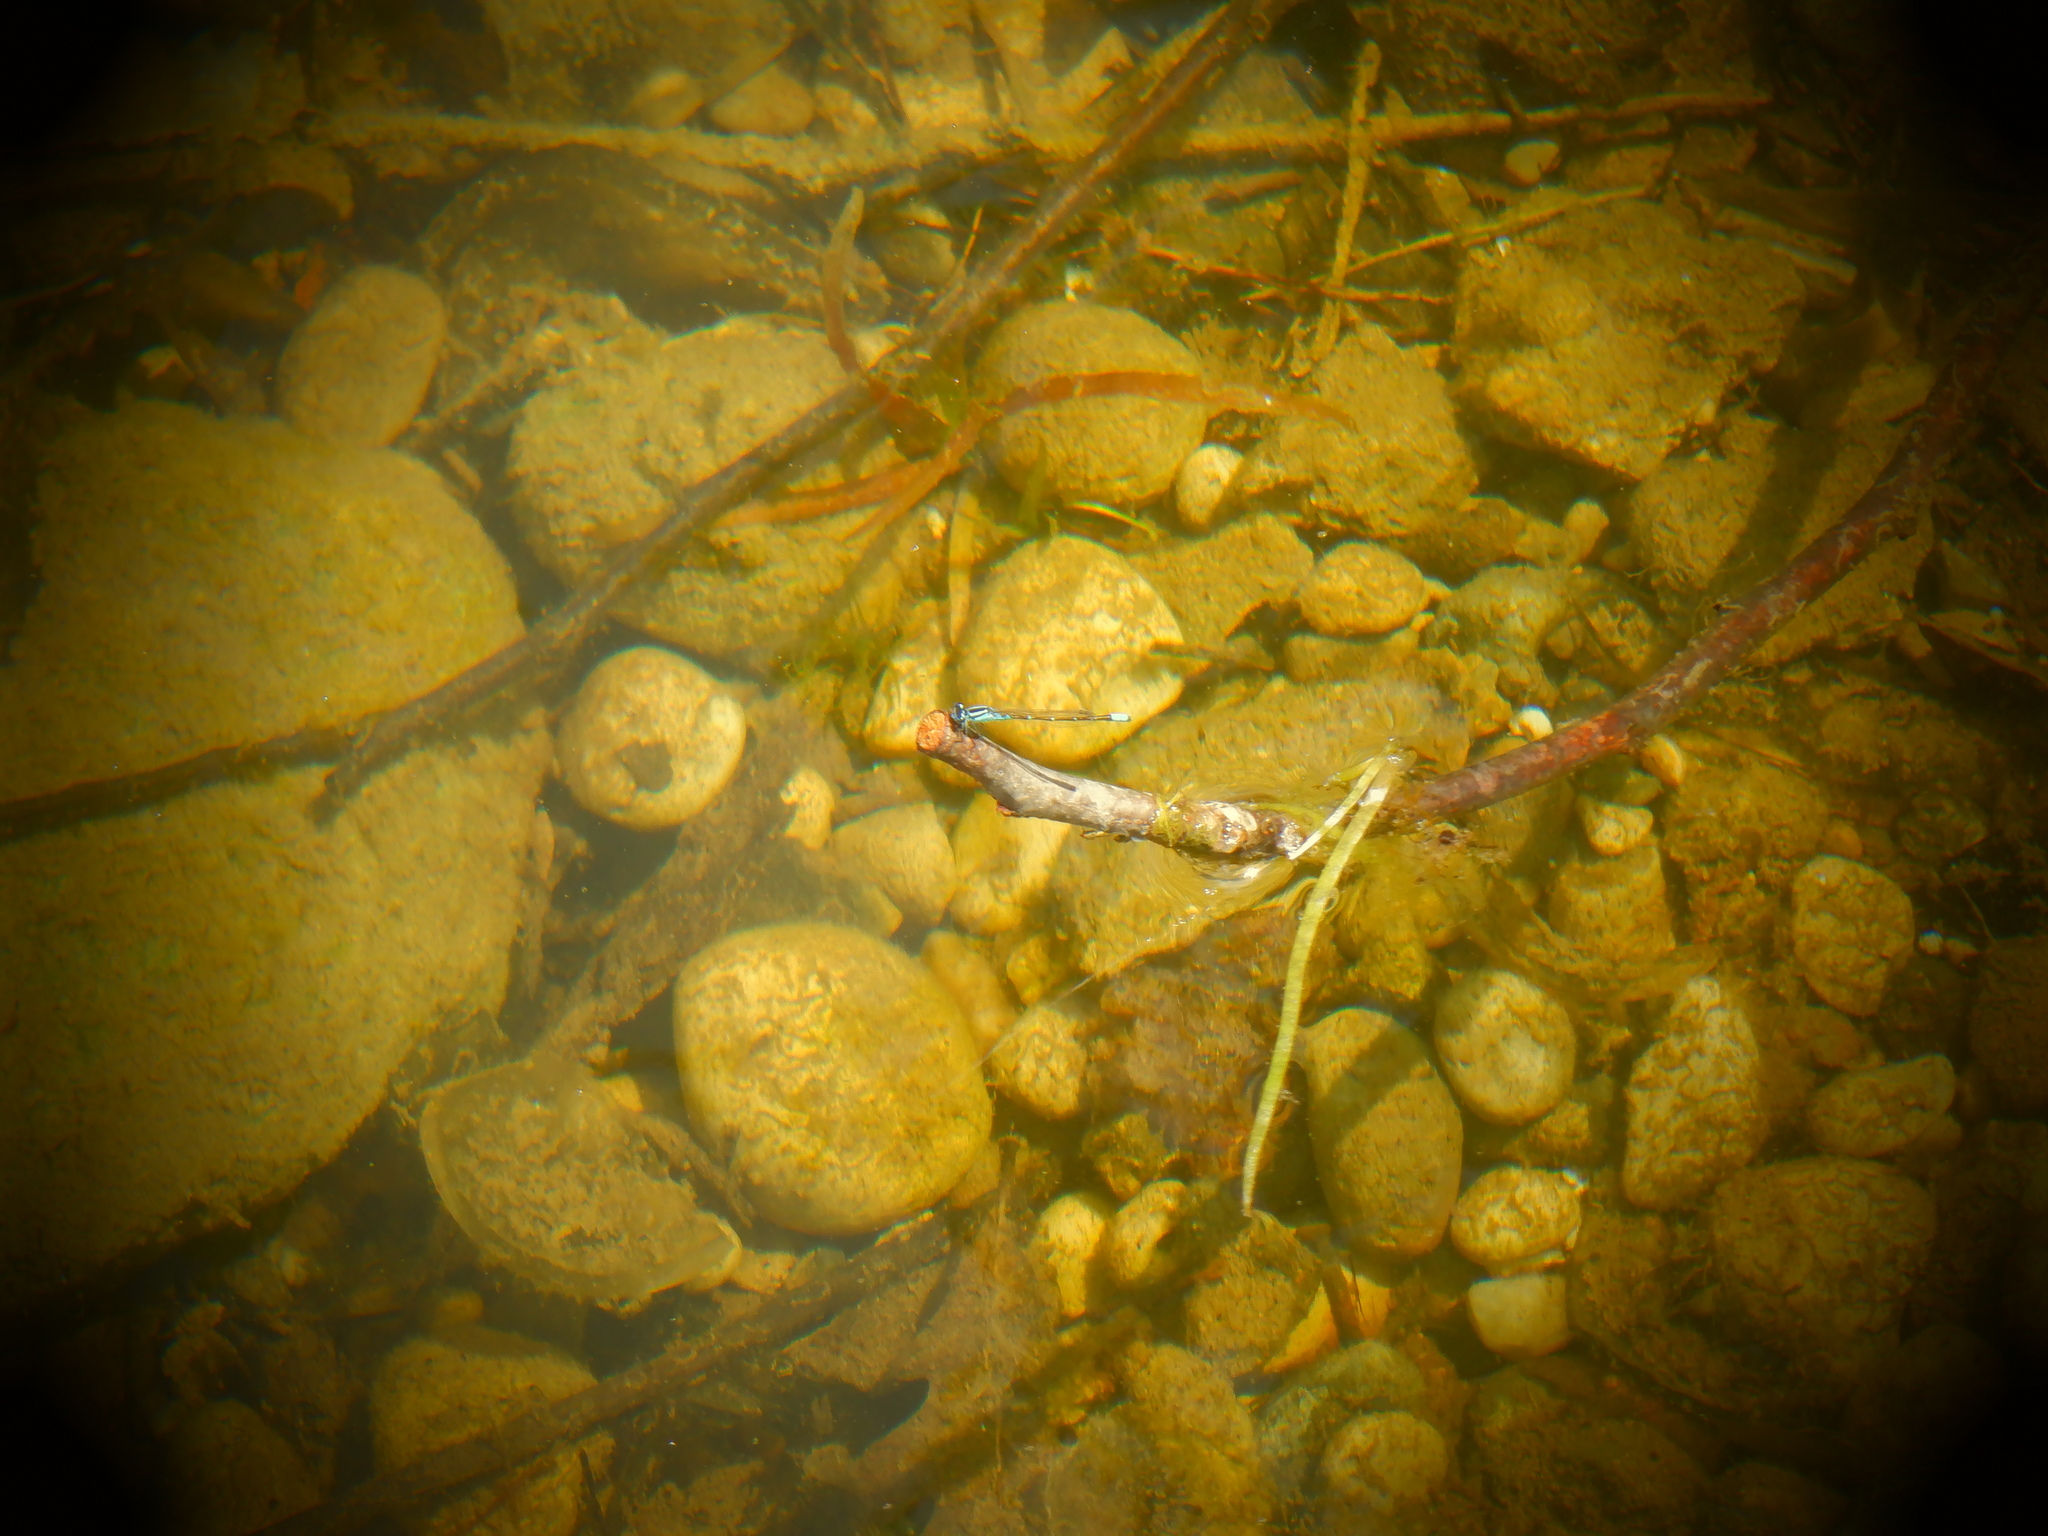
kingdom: Animalia
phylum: Arthropoda
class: Insecta
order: Odonata
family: Coenagrionidae
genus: Enallagma
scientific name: Enallagma geminatum
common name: Skimming bluet
